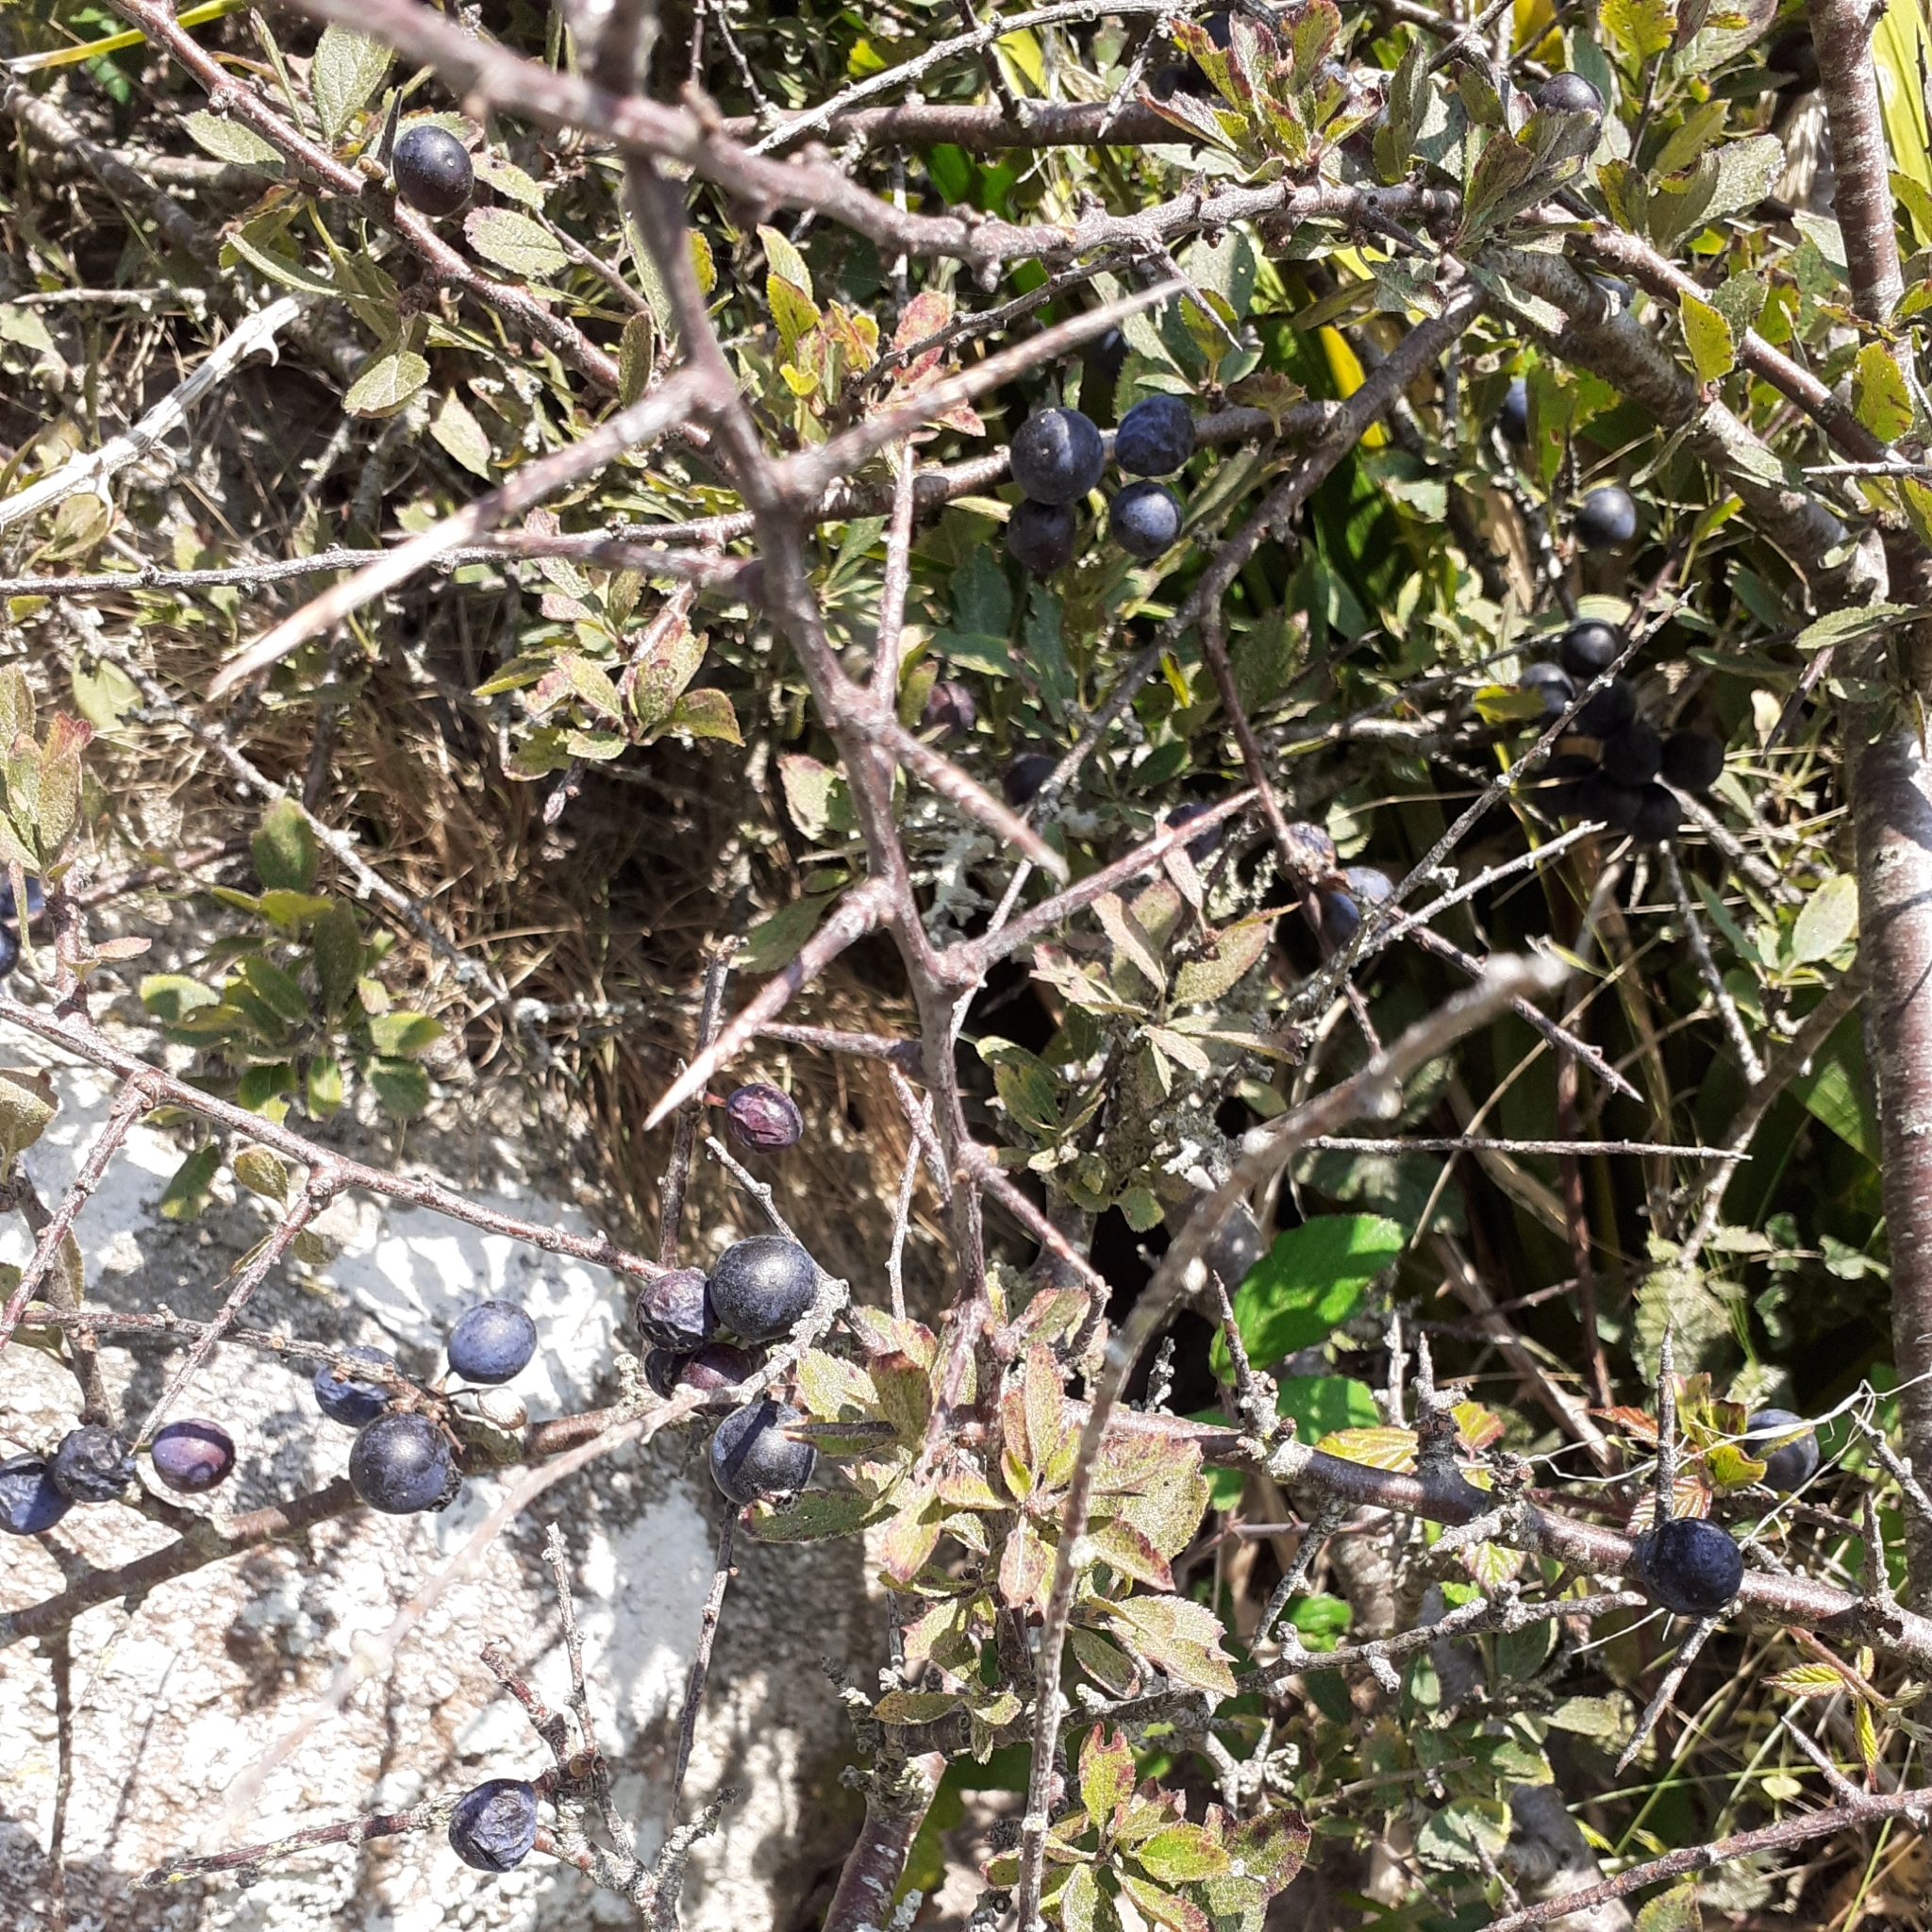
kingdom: Plantae
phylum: Tracheophyta
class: Magnoliopsida
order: Rosales
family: Rosaceae
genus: Prunus
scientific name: Prunus spinosa
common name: Blackthorn
